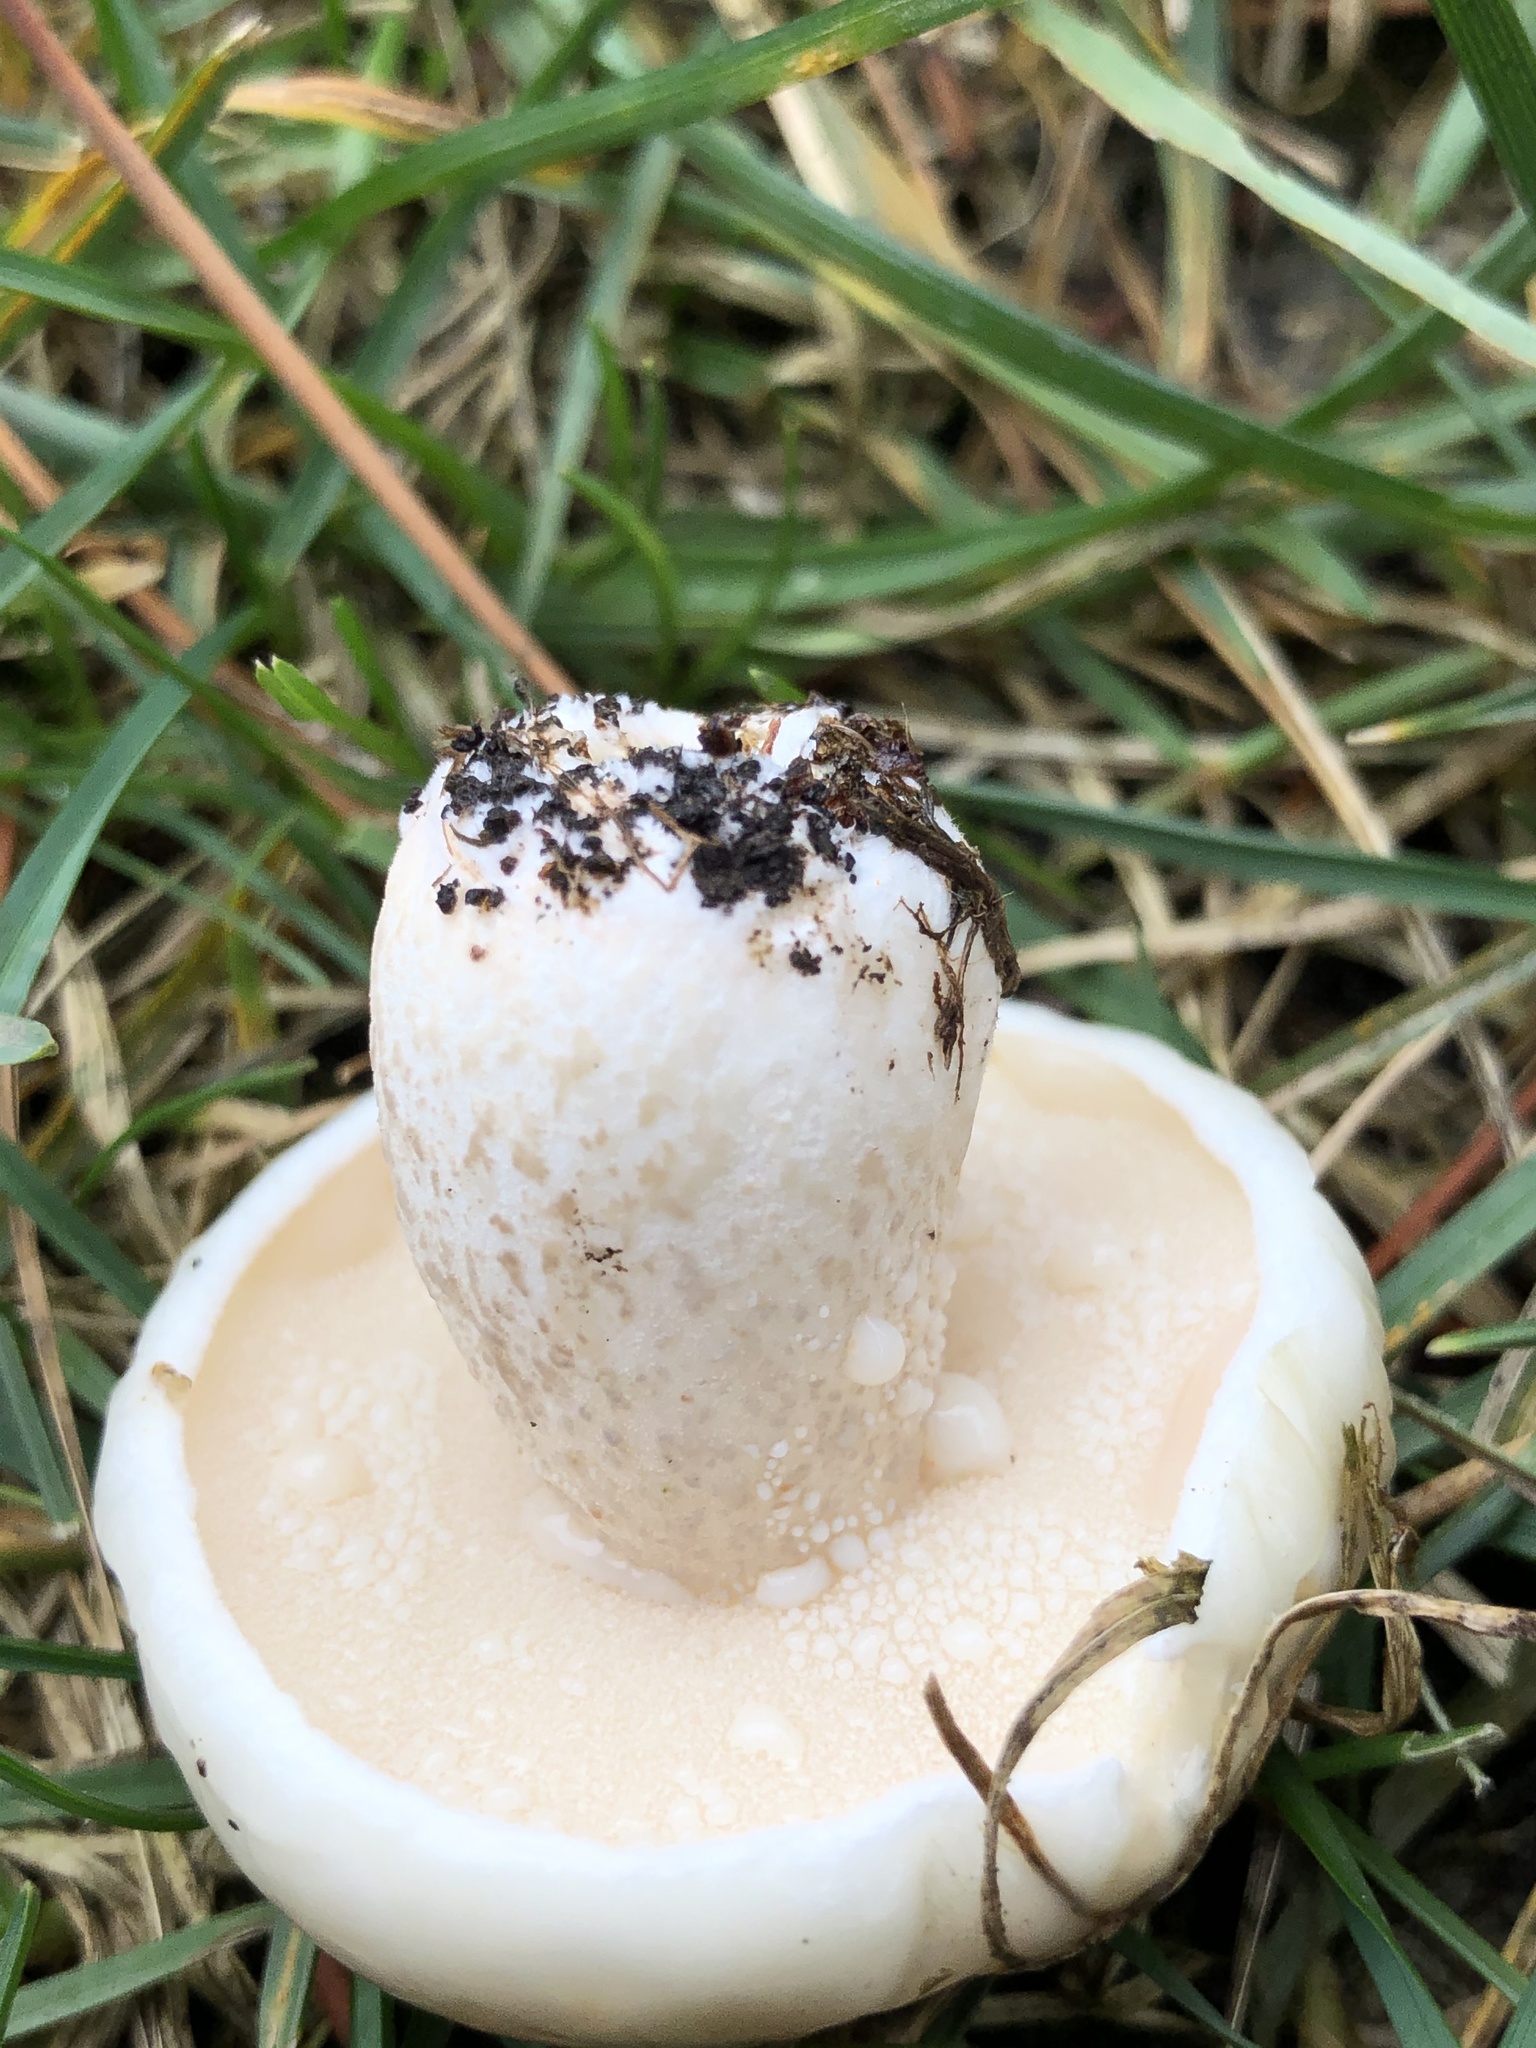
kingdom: Fungi
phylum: Basidiomycota
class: Agaricomycetes
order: Boletales
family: Suillaceae
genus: Suillus
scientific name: Suillus pungens
